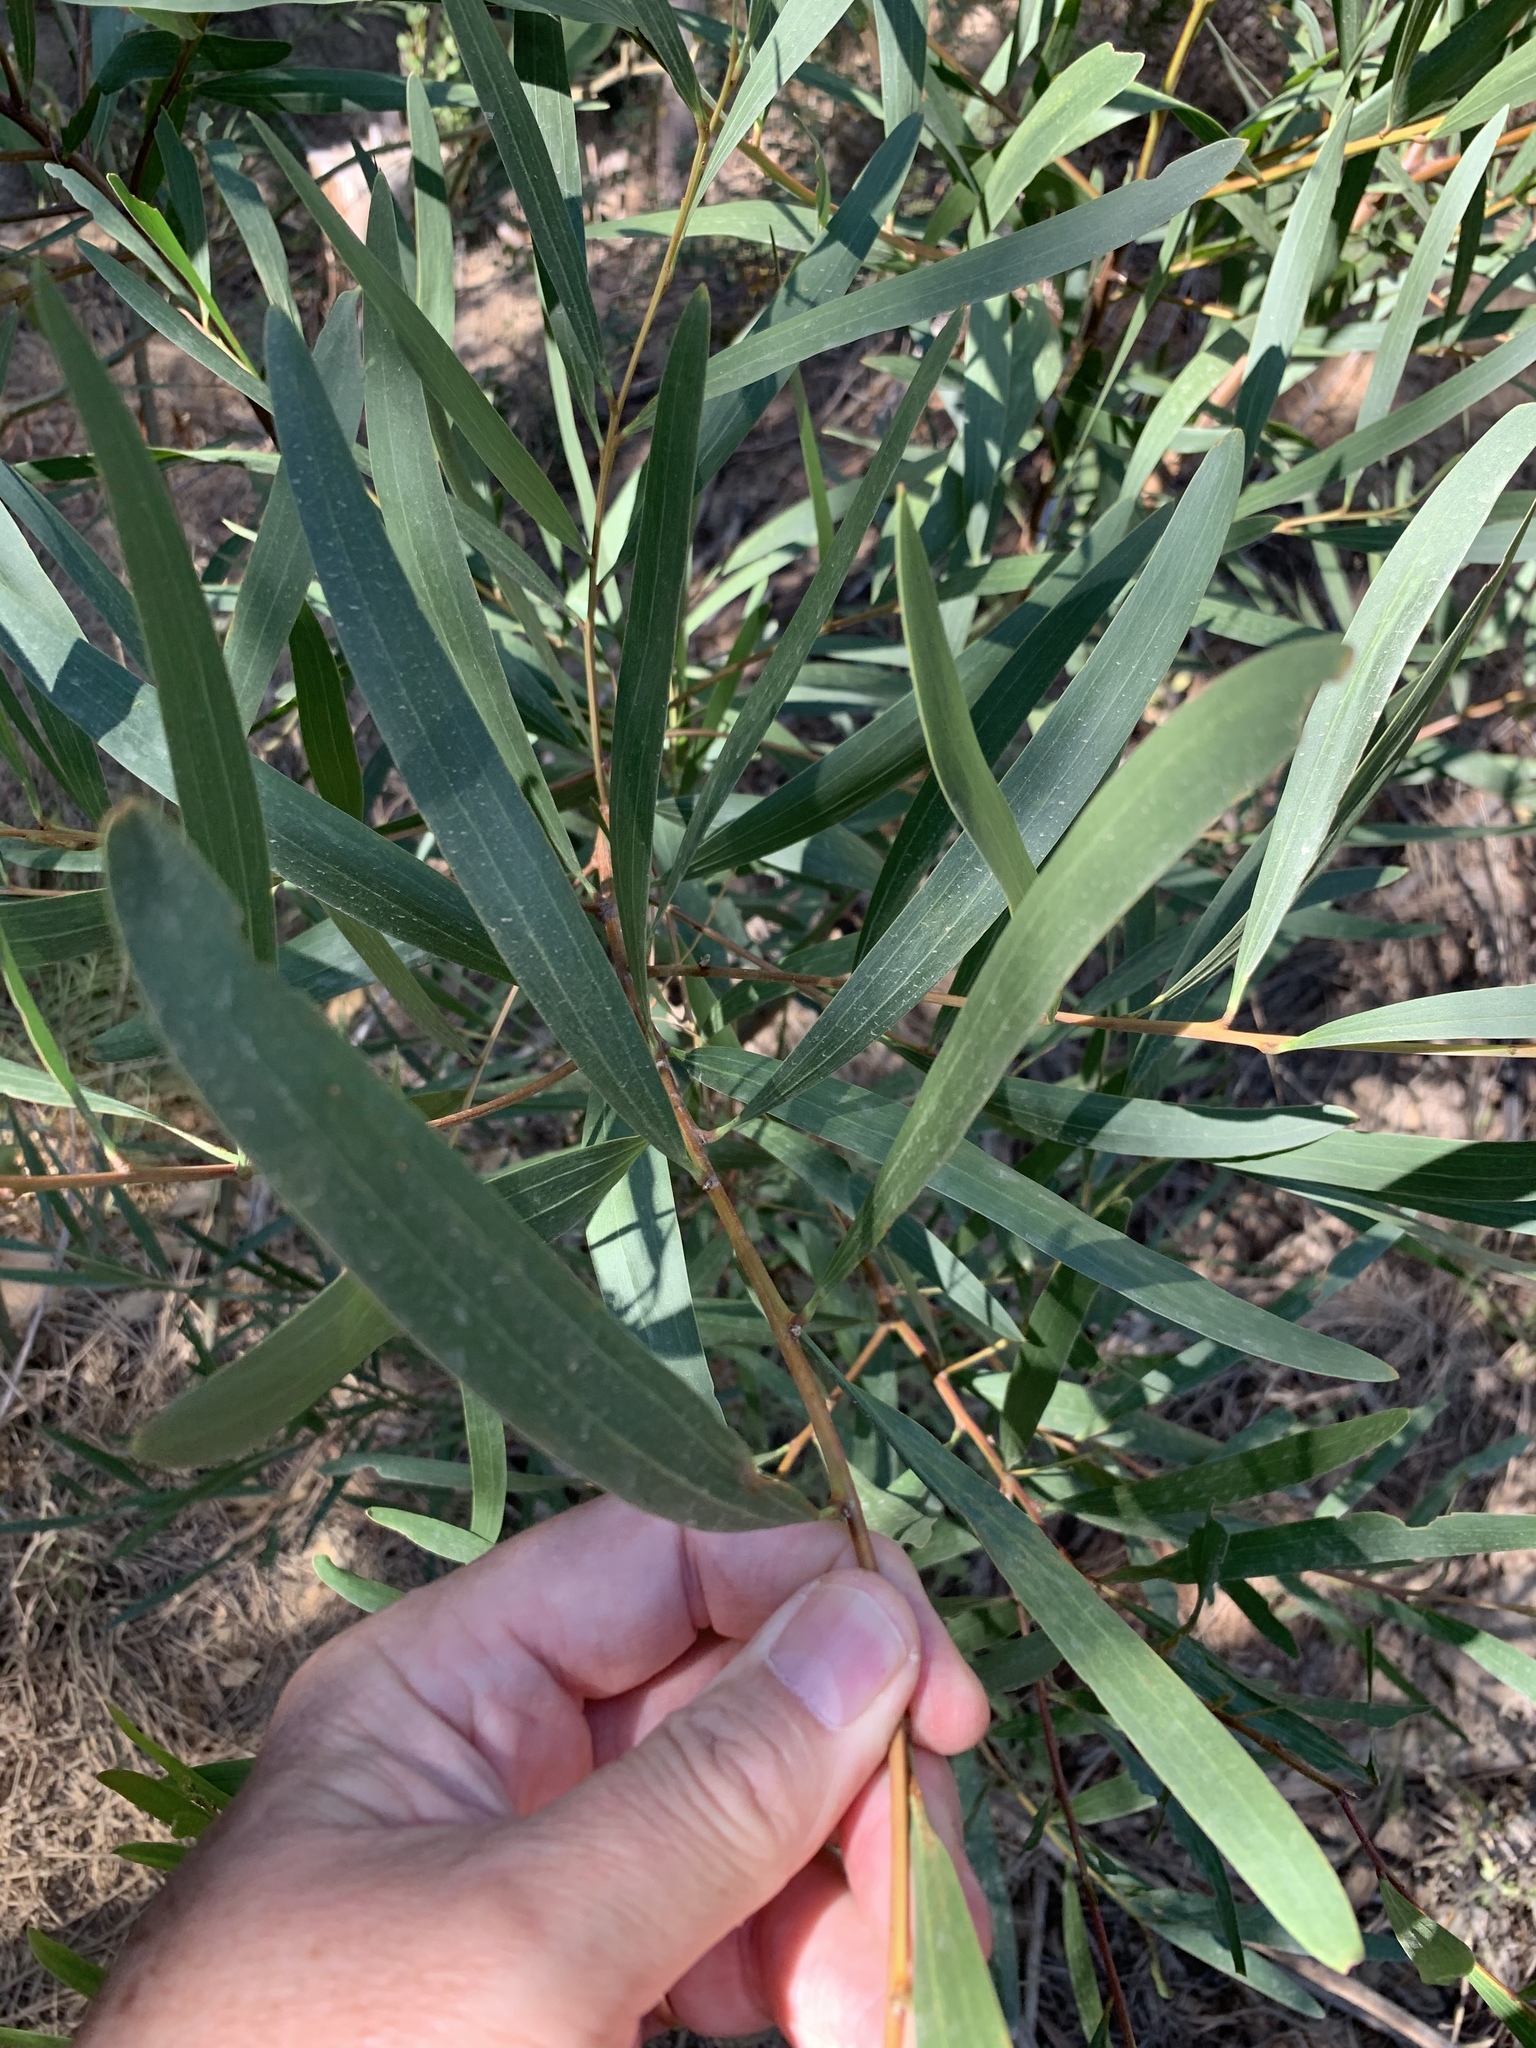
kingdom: Plantae
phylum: Tracheophyta
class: Magnoliopsida
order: Fabales
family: Fabaceae
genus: Acacia
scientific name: Acacia longifolia
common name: Sydney golden wattle
